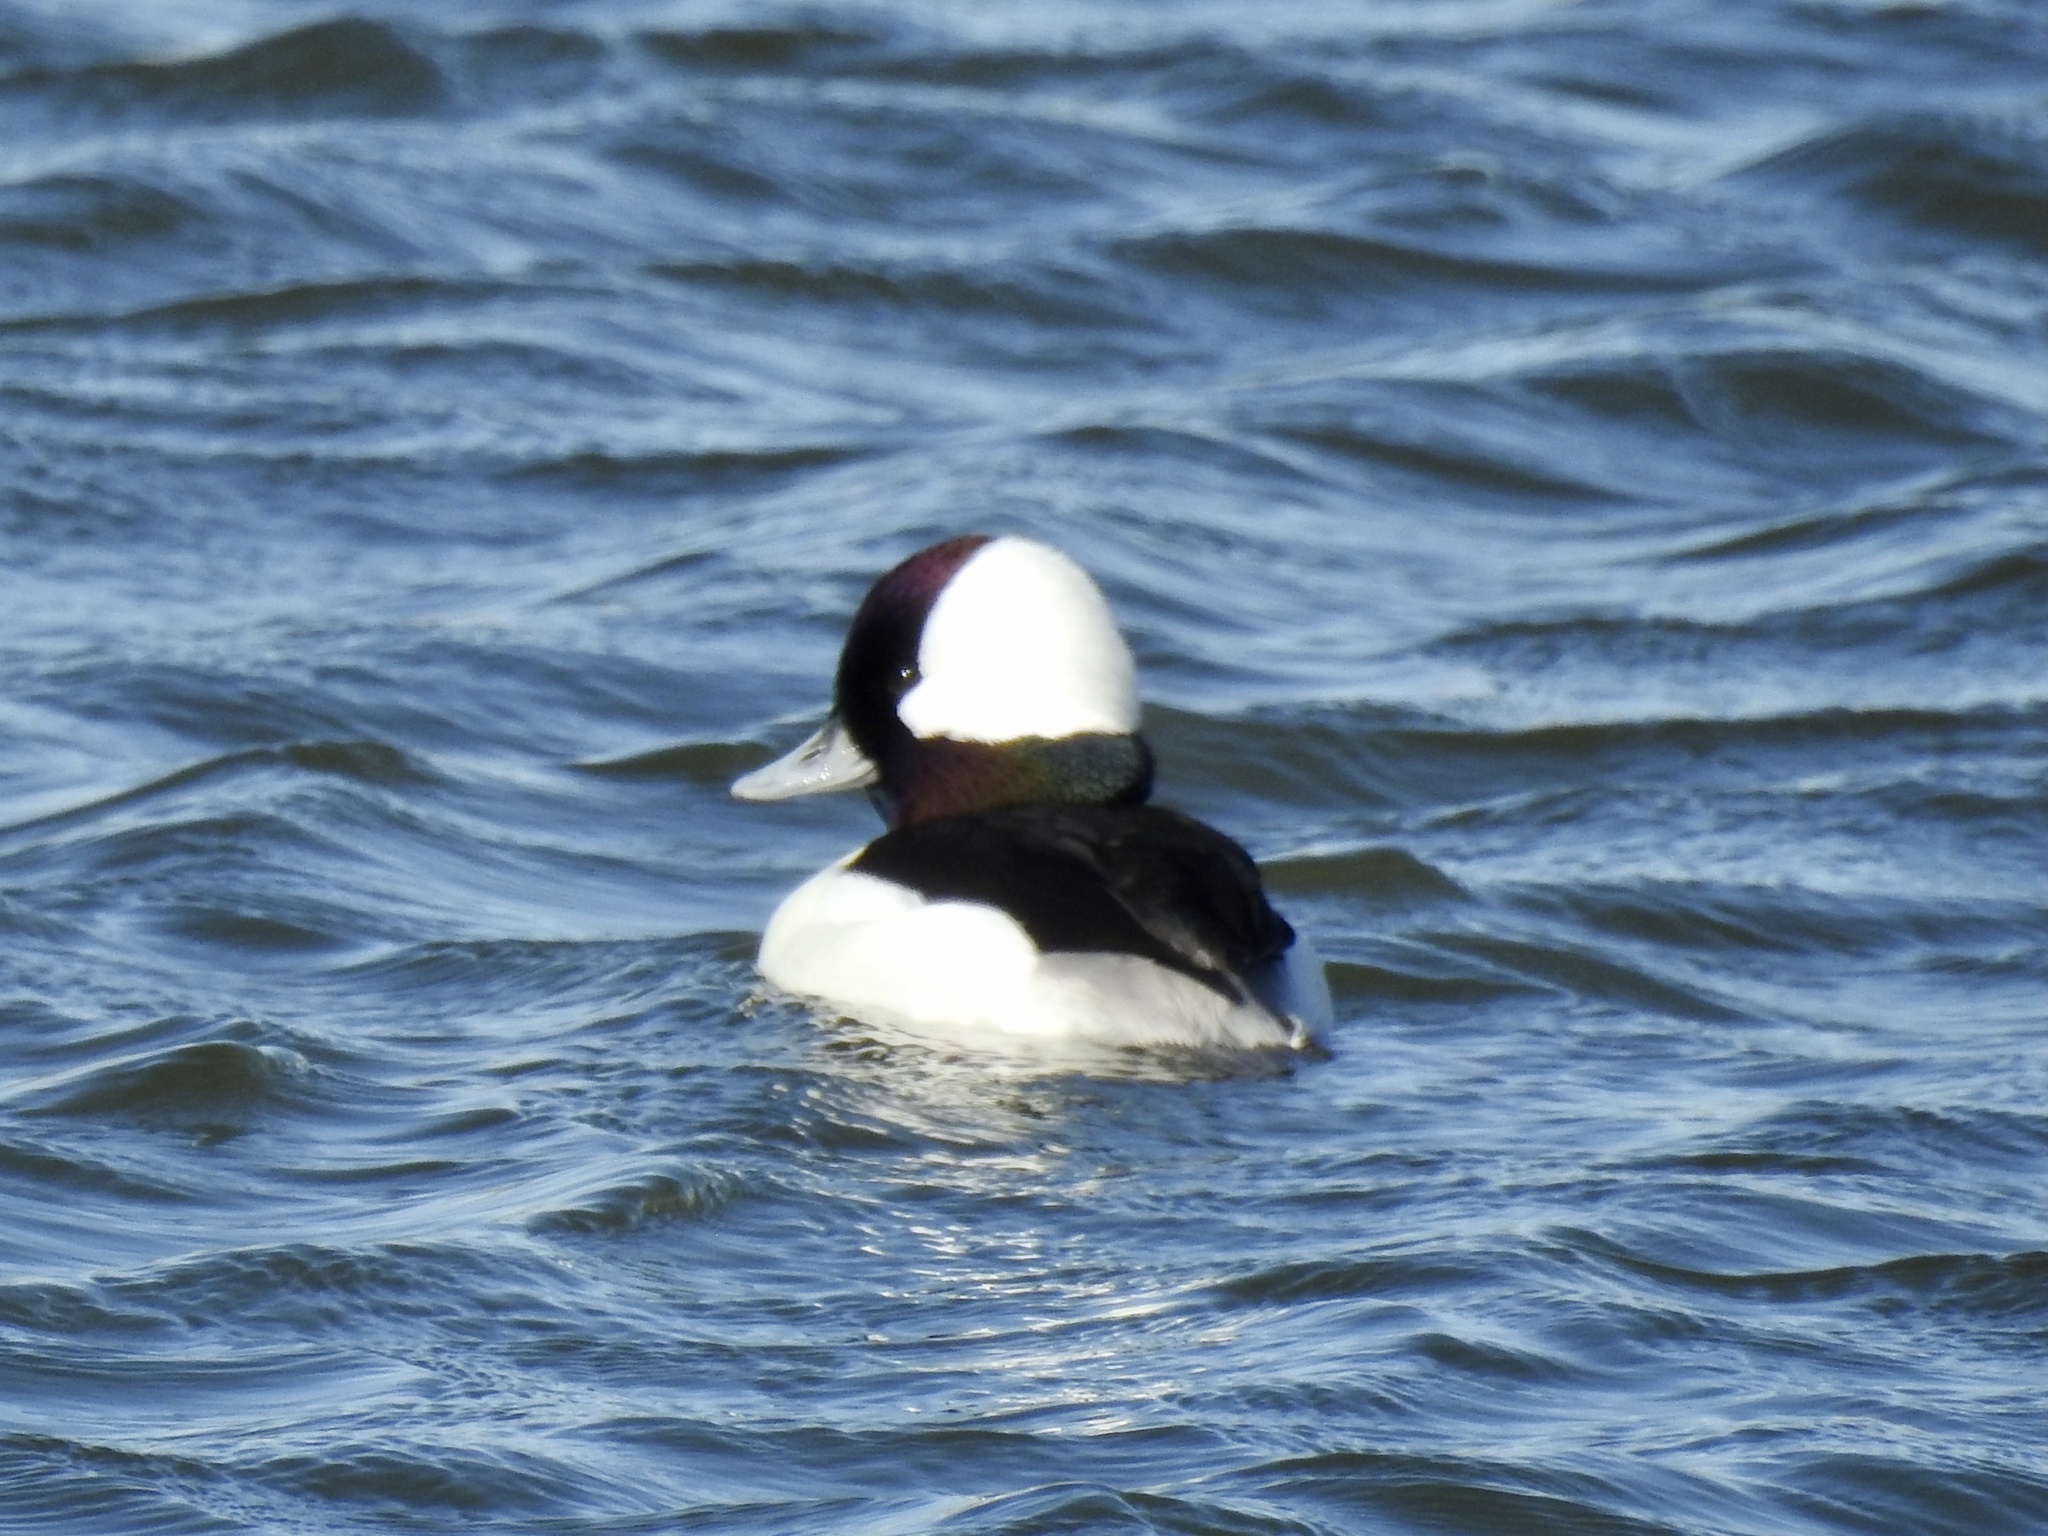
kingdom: Animalia
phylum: Chordata
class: Aves
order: Anseriformes
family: Anatidae
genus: Bucephala
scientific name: Bucephala albeola
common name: Bufflehead
